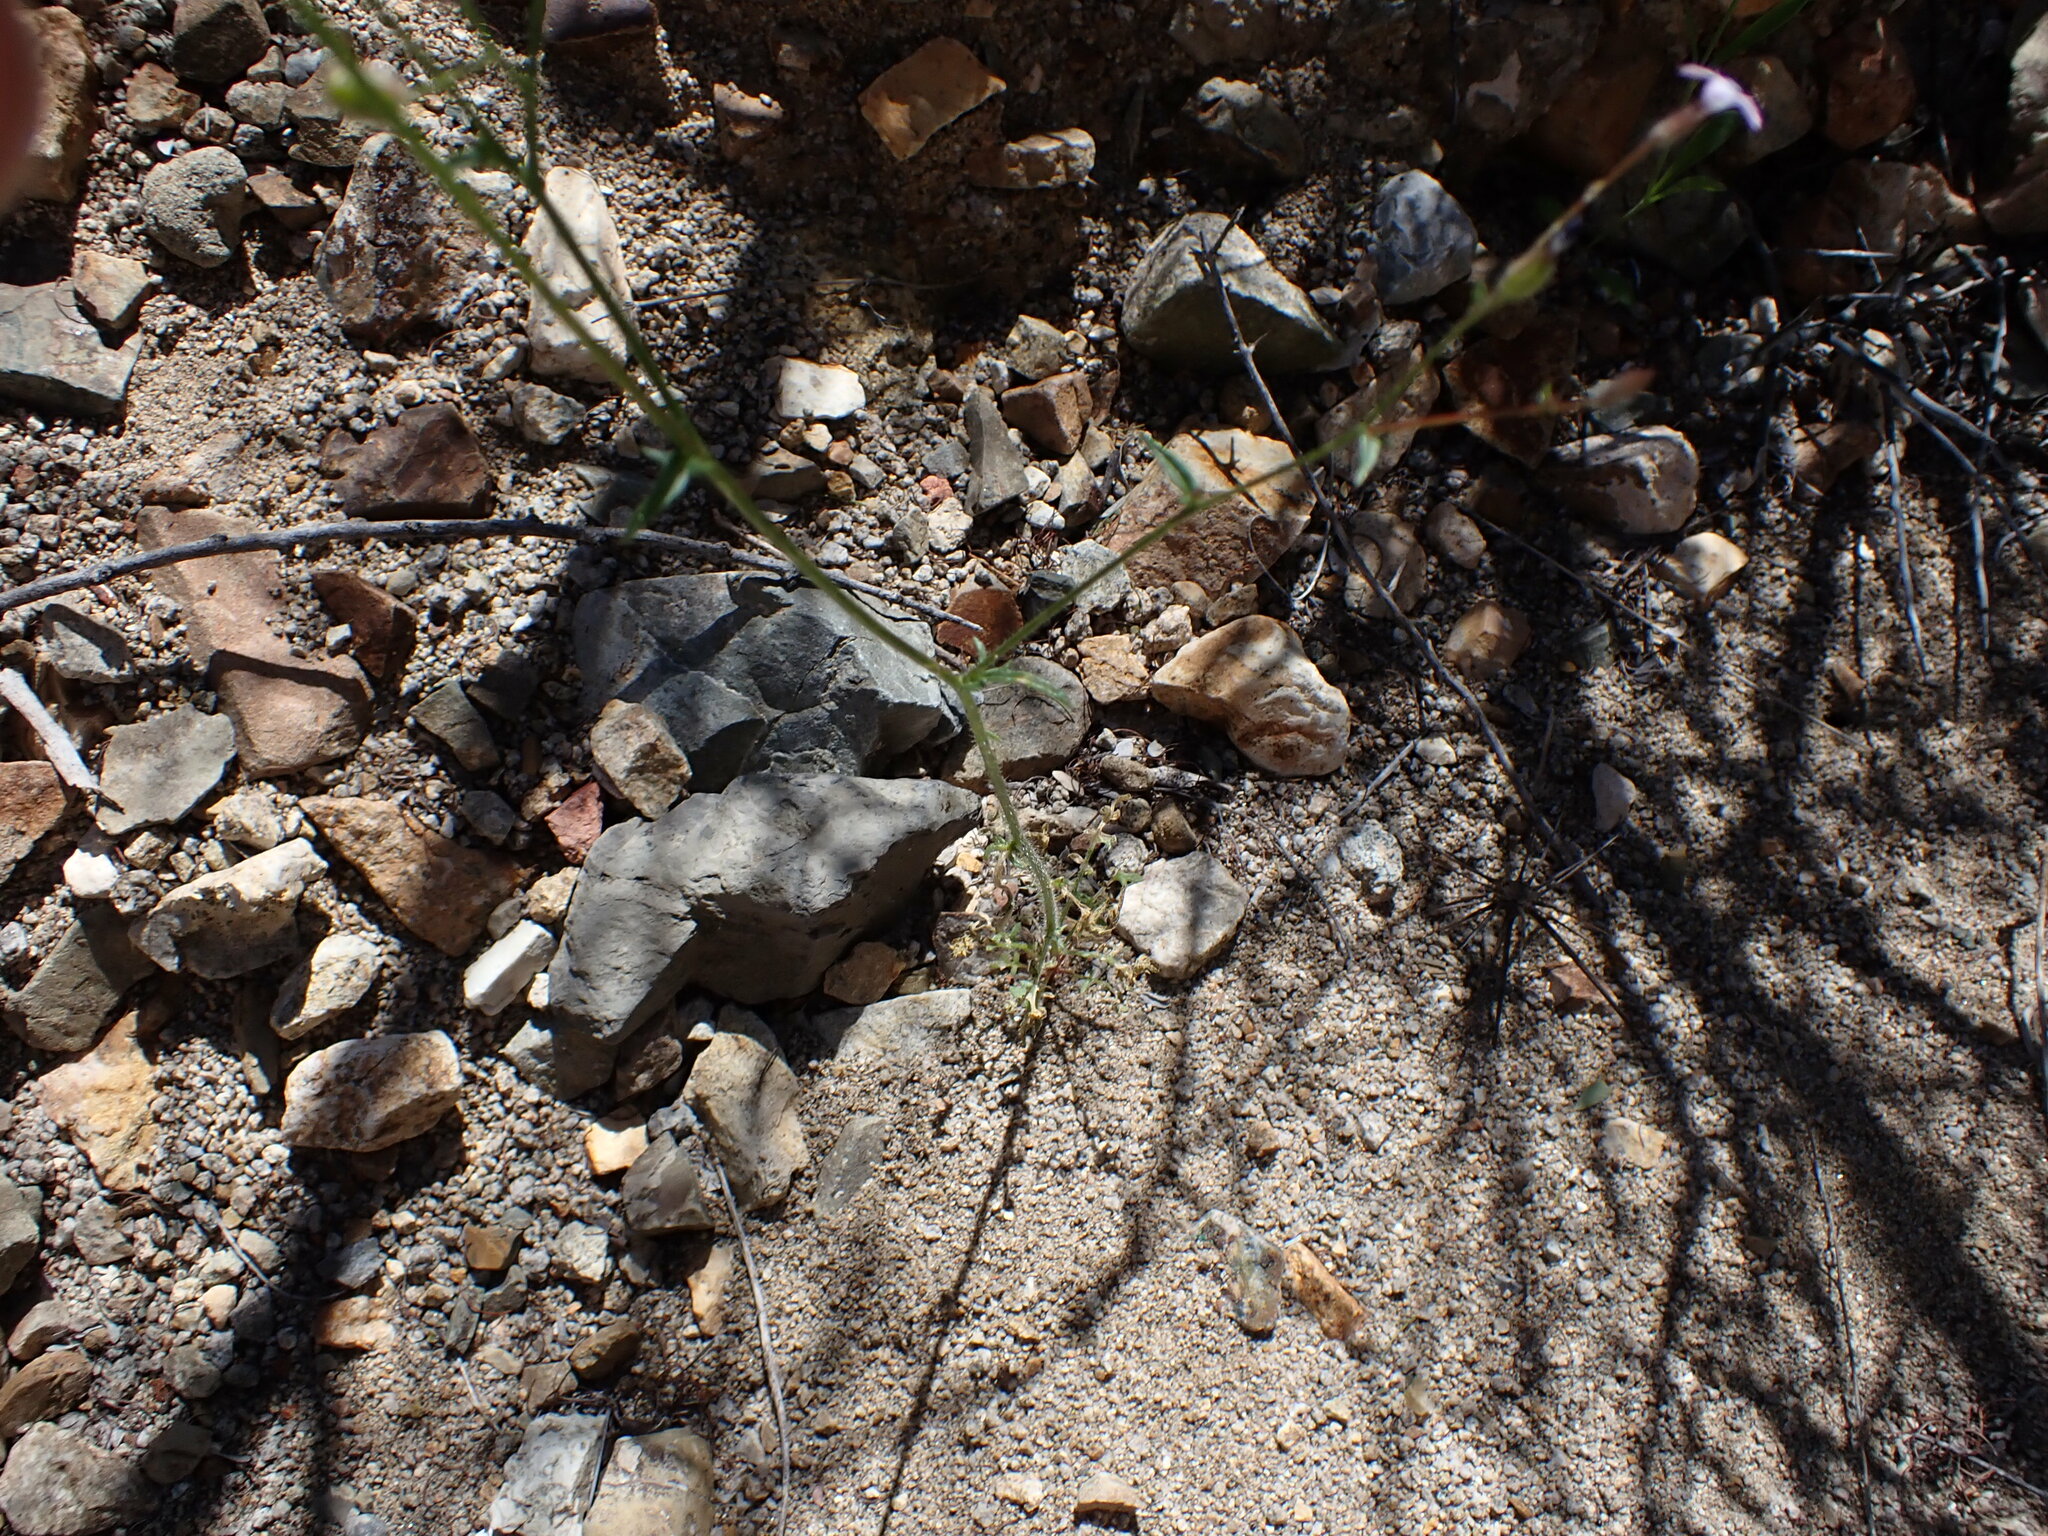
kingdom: Plantae
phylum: Tracheophyta
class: Magnoliopsida
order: Ericales
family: Polemoniaceae
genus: Gilia
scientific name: Gilia stellata
